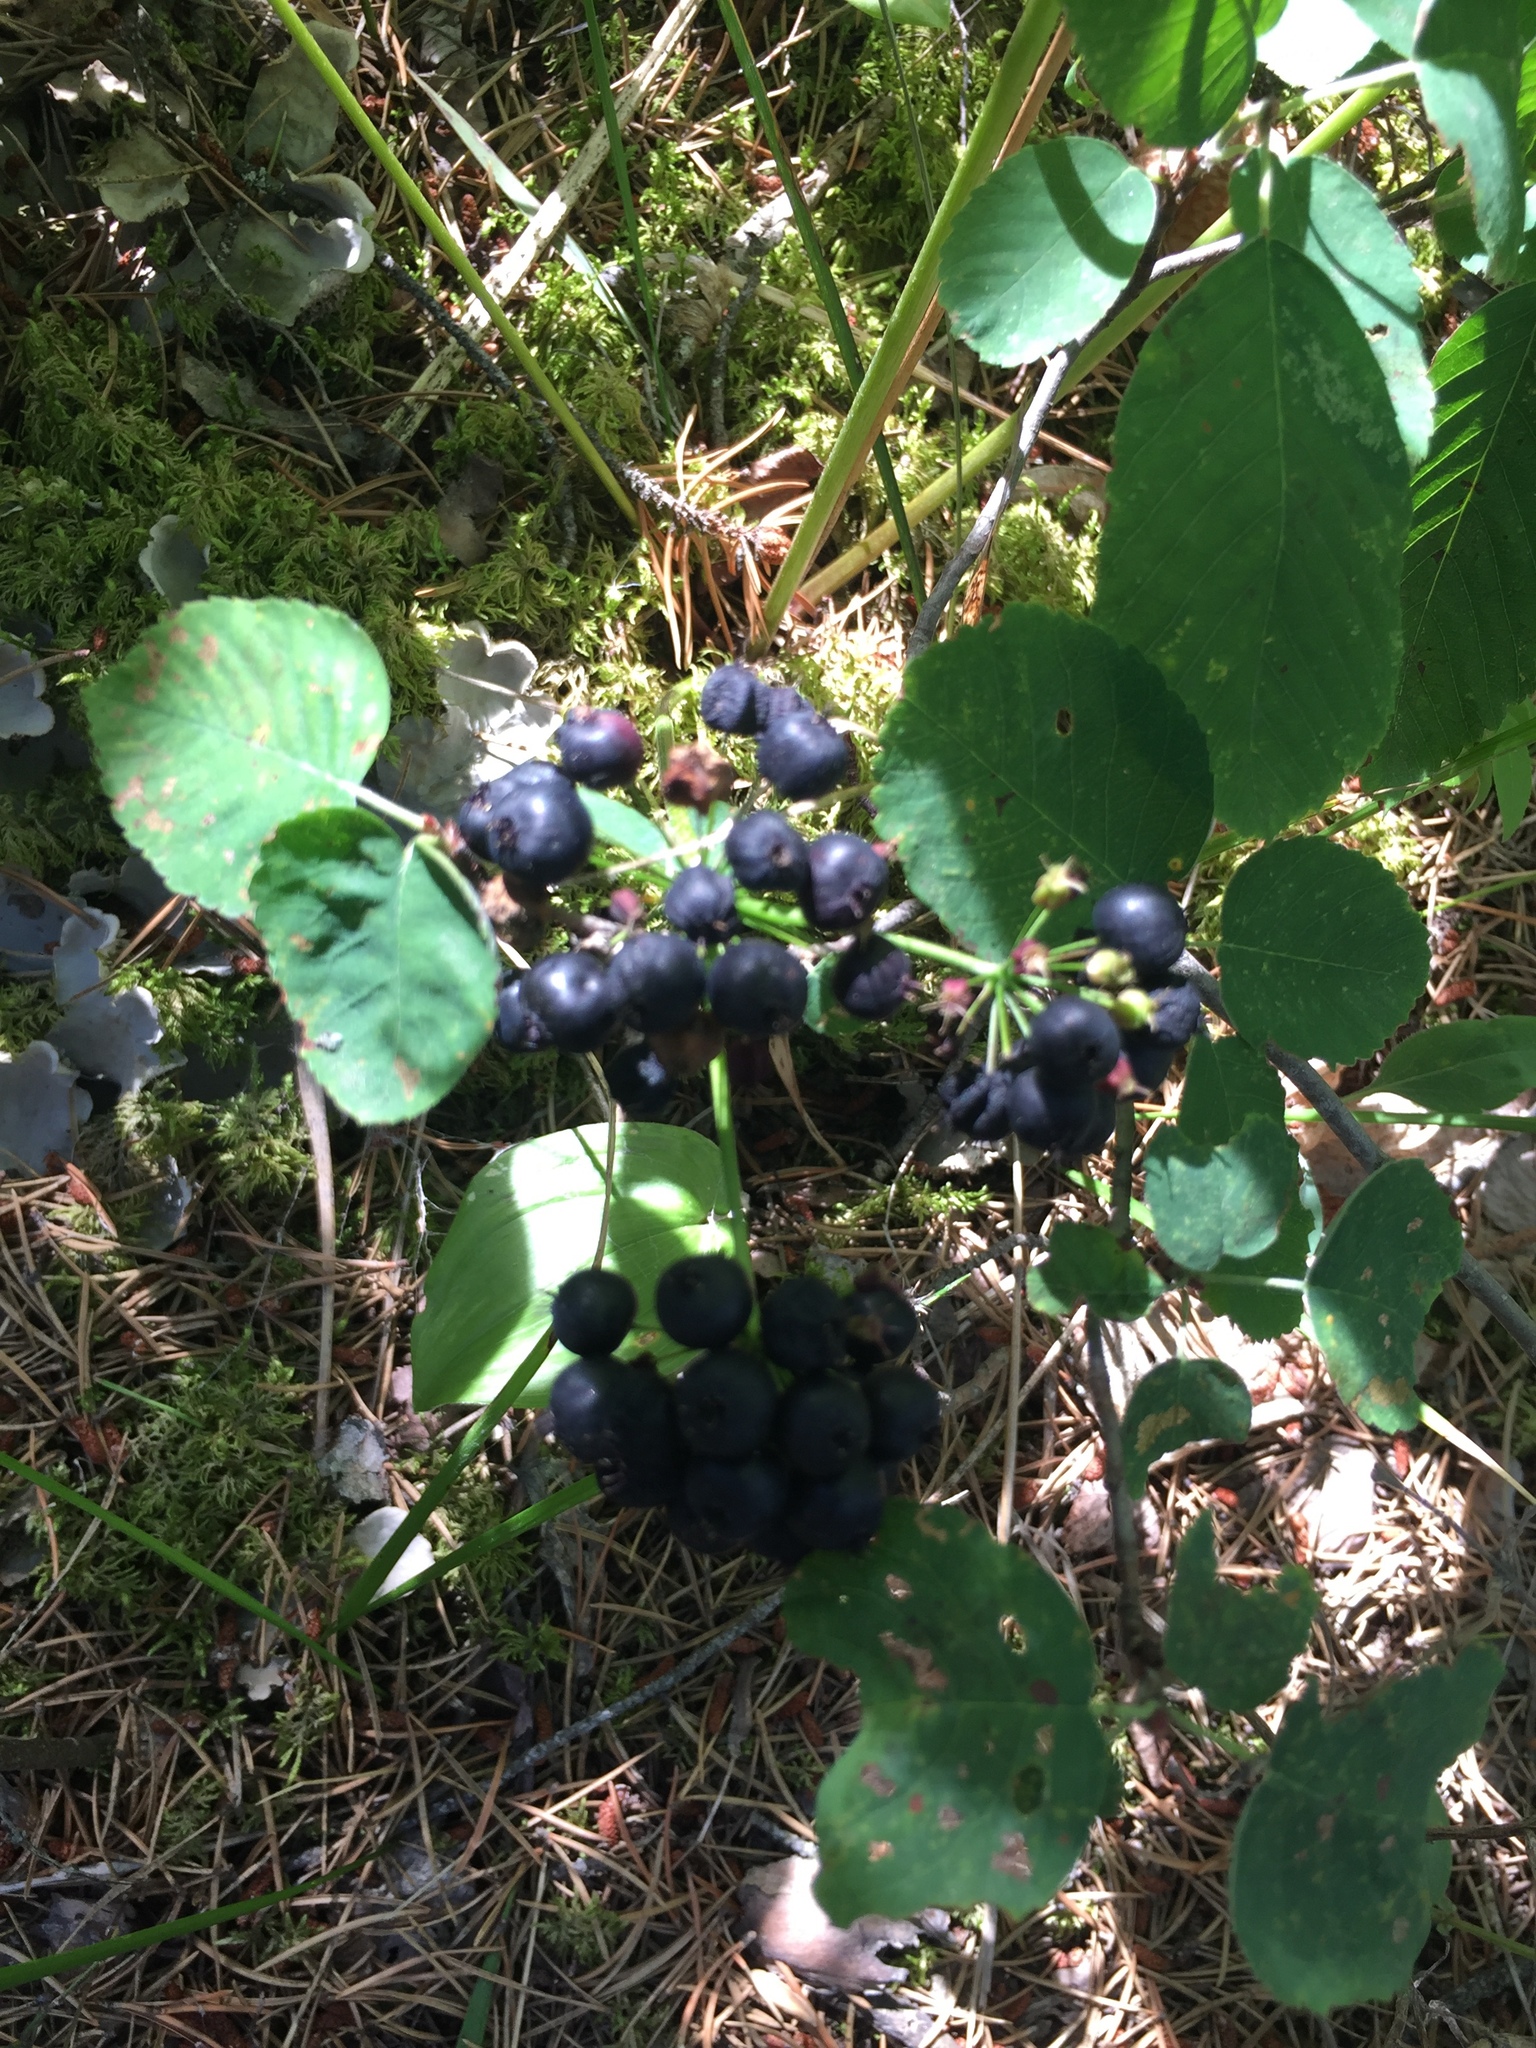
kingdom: Plantae
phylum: Tracheophyta
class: Magnoliopsida
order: Apiales
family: Araliaceae
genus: Aralia
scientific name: Aralia nudicaulis
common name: Wild sarsaparilla
